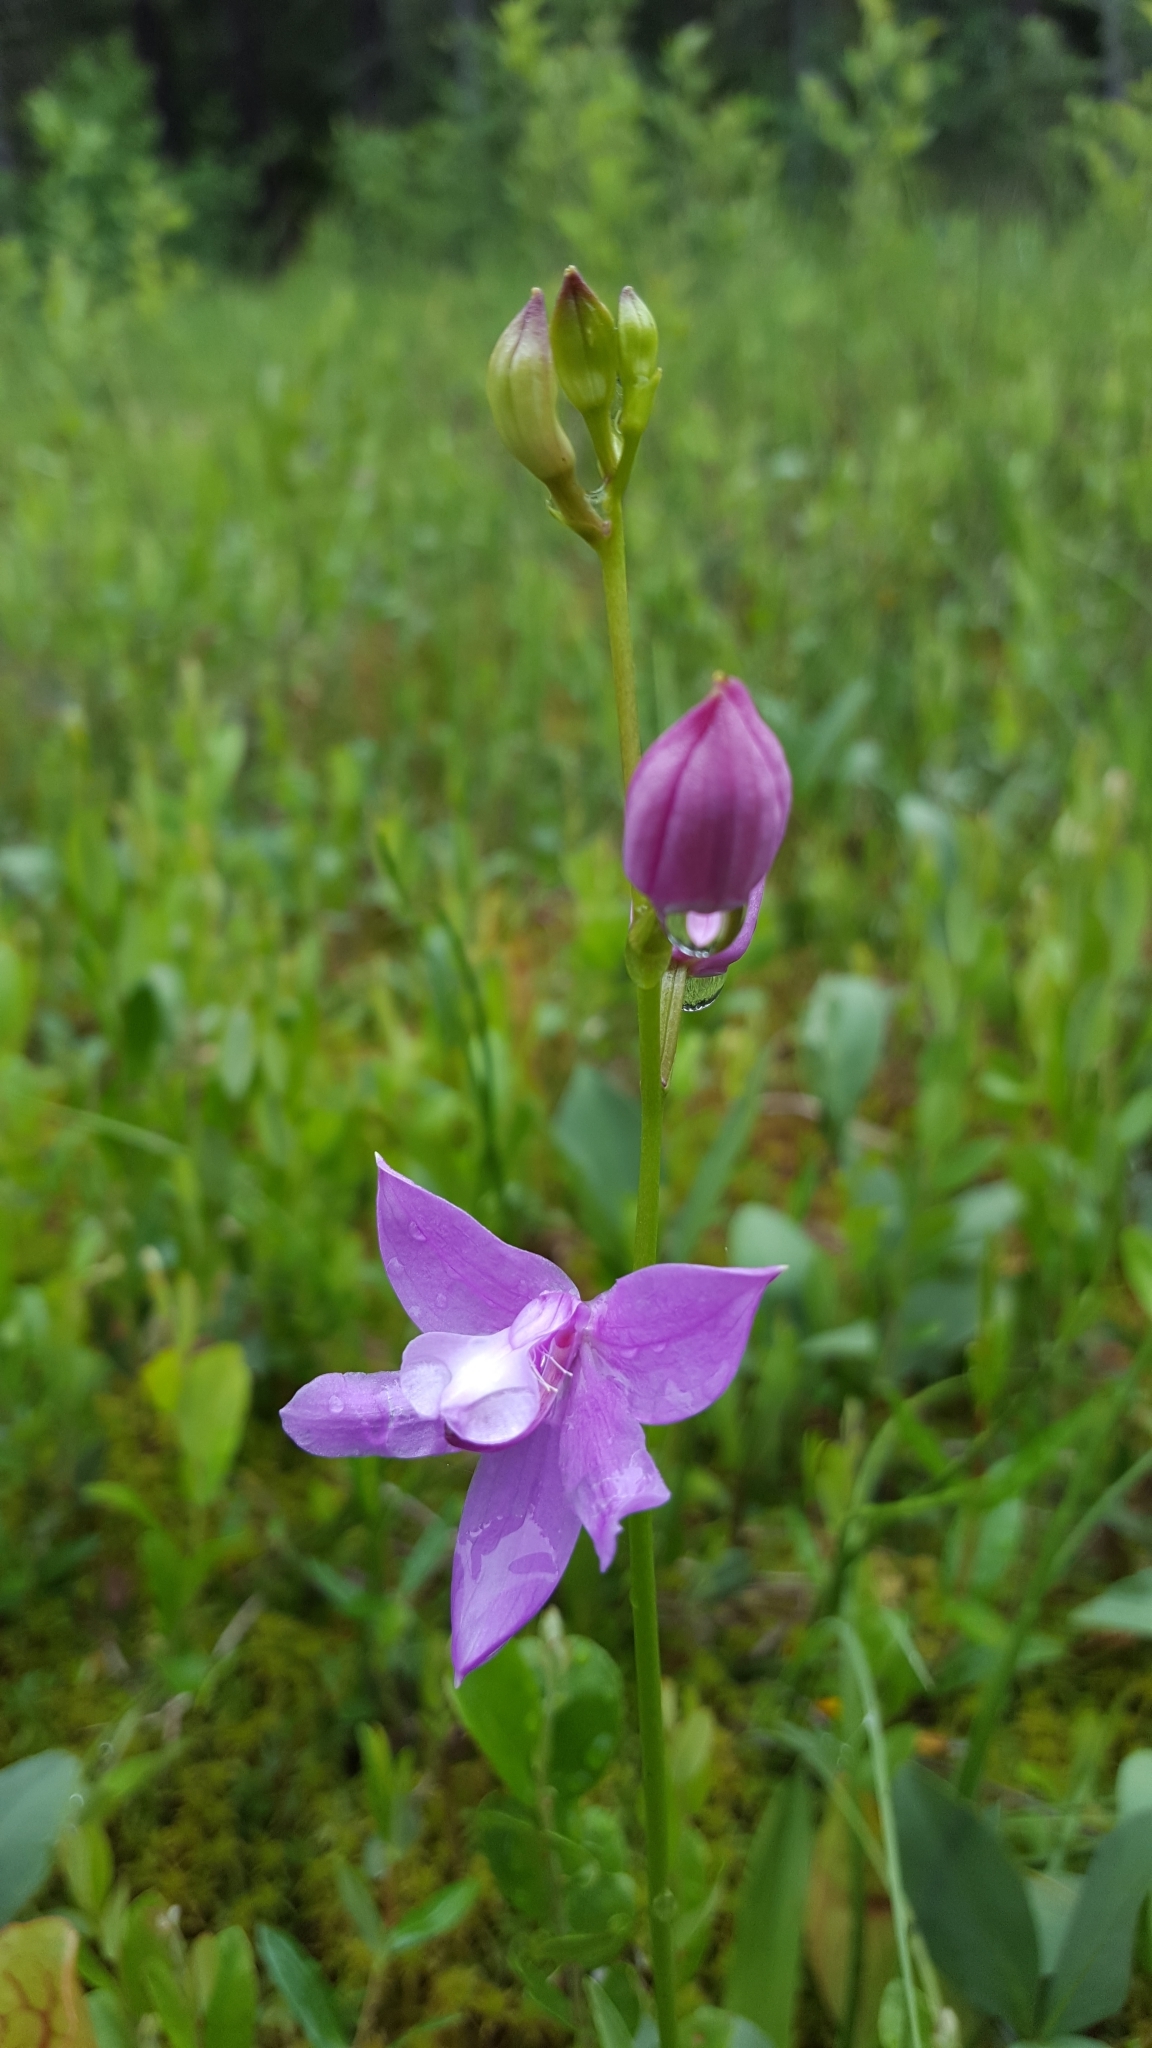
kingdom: Plantae
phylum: Tracheophyta
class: Liliopsida
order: Asparagales
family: Orchidaceae
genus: Calopogon
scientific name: Calopogon tuberosus
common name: Grass-pink
